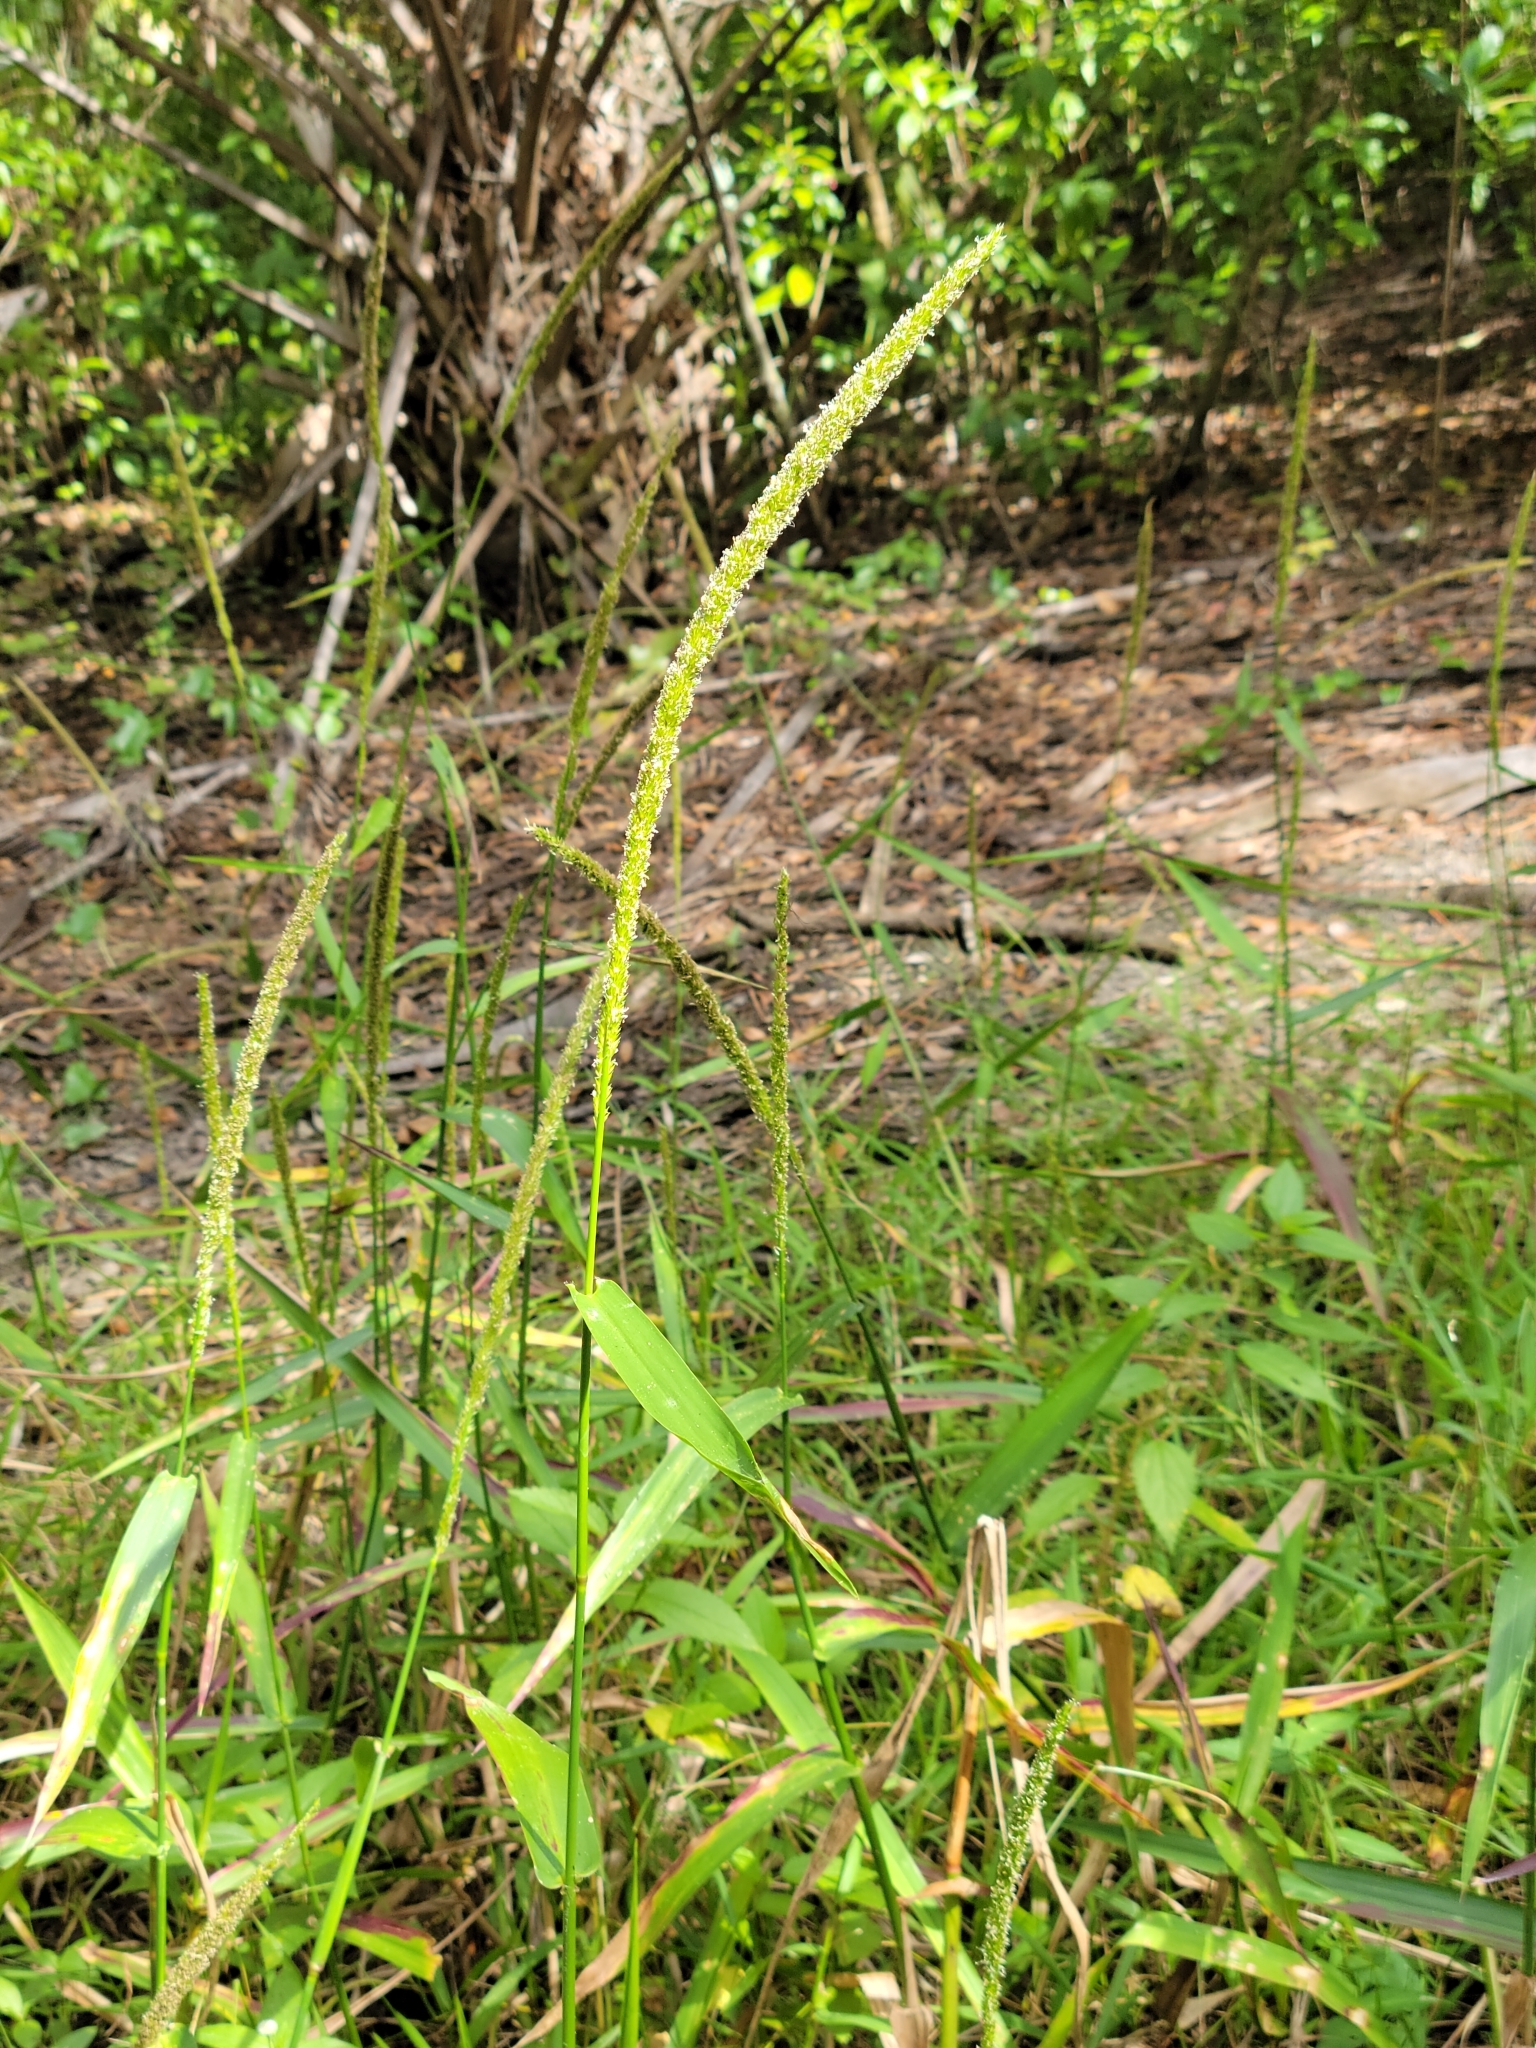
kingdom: Plantae
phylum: Tracheophyta
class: Liliopsida
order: Poales
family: Poaceae
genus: Hymenachne
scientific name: Hymenachne amplexicaulis
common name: Olive hymenachne
